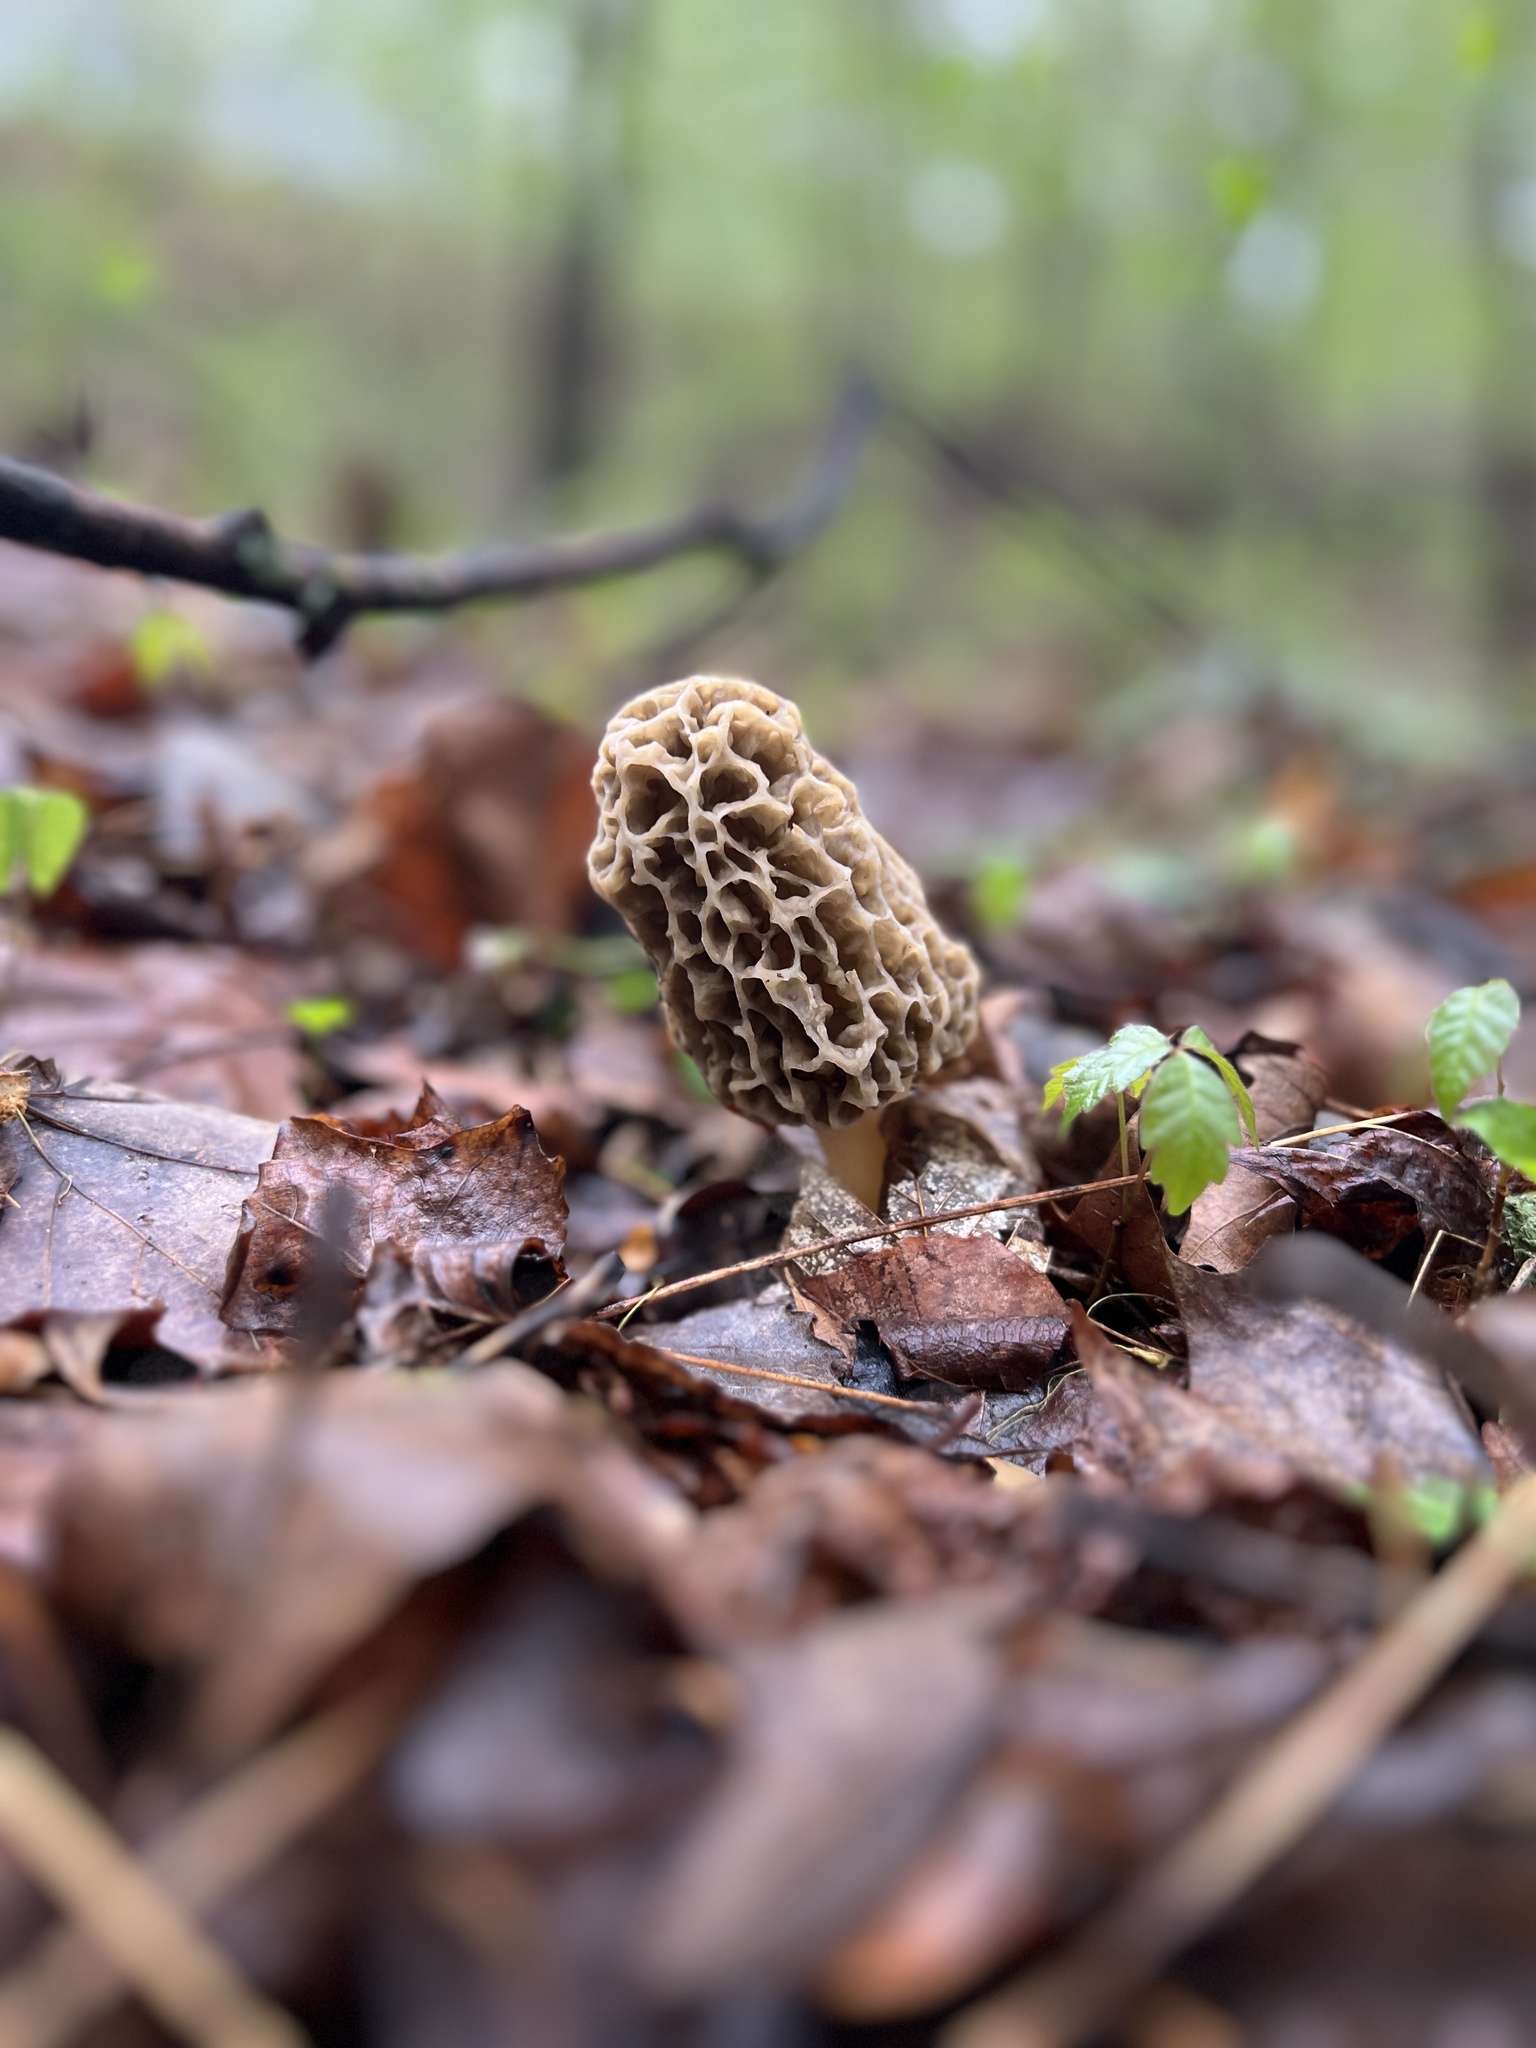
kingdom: Fungi
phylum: Ascomycota
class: Pezizomycetes
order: Pezizales
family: Morchellaceae
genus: Morchella
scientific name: Morchella americana
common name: White morel
